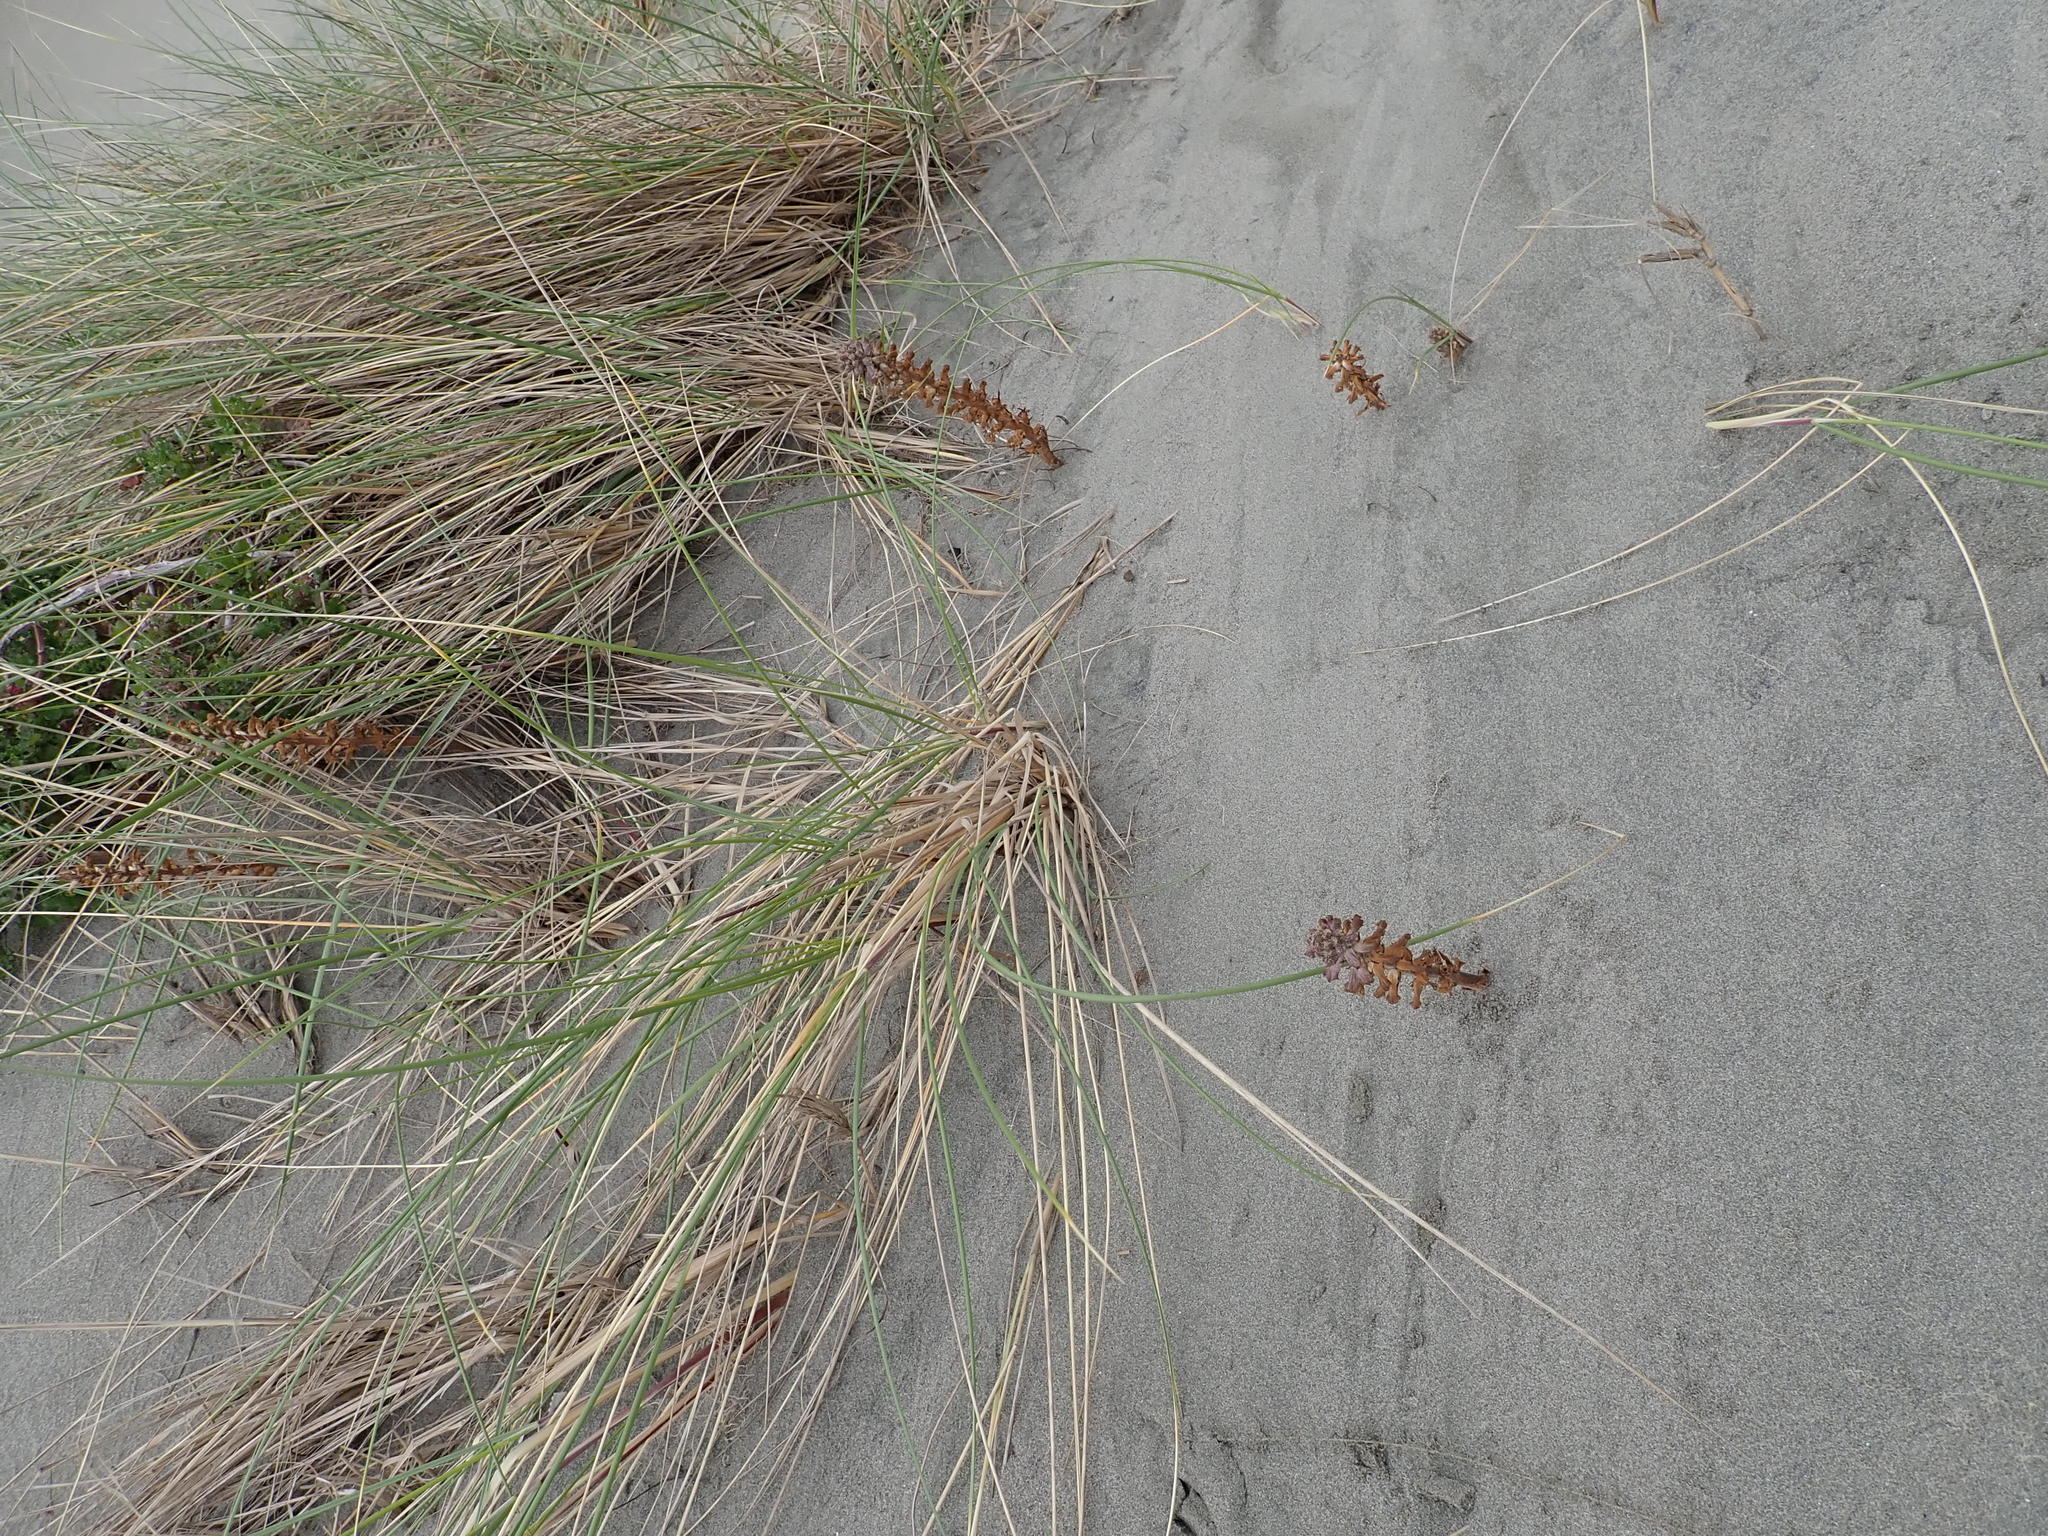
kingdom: Plantae
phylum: Tracheophyta
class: Magnoliopsida
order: Lamiales
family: Orobanchaceae
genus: Orobanche
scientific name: Orobanche minor
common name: Common broomrape
